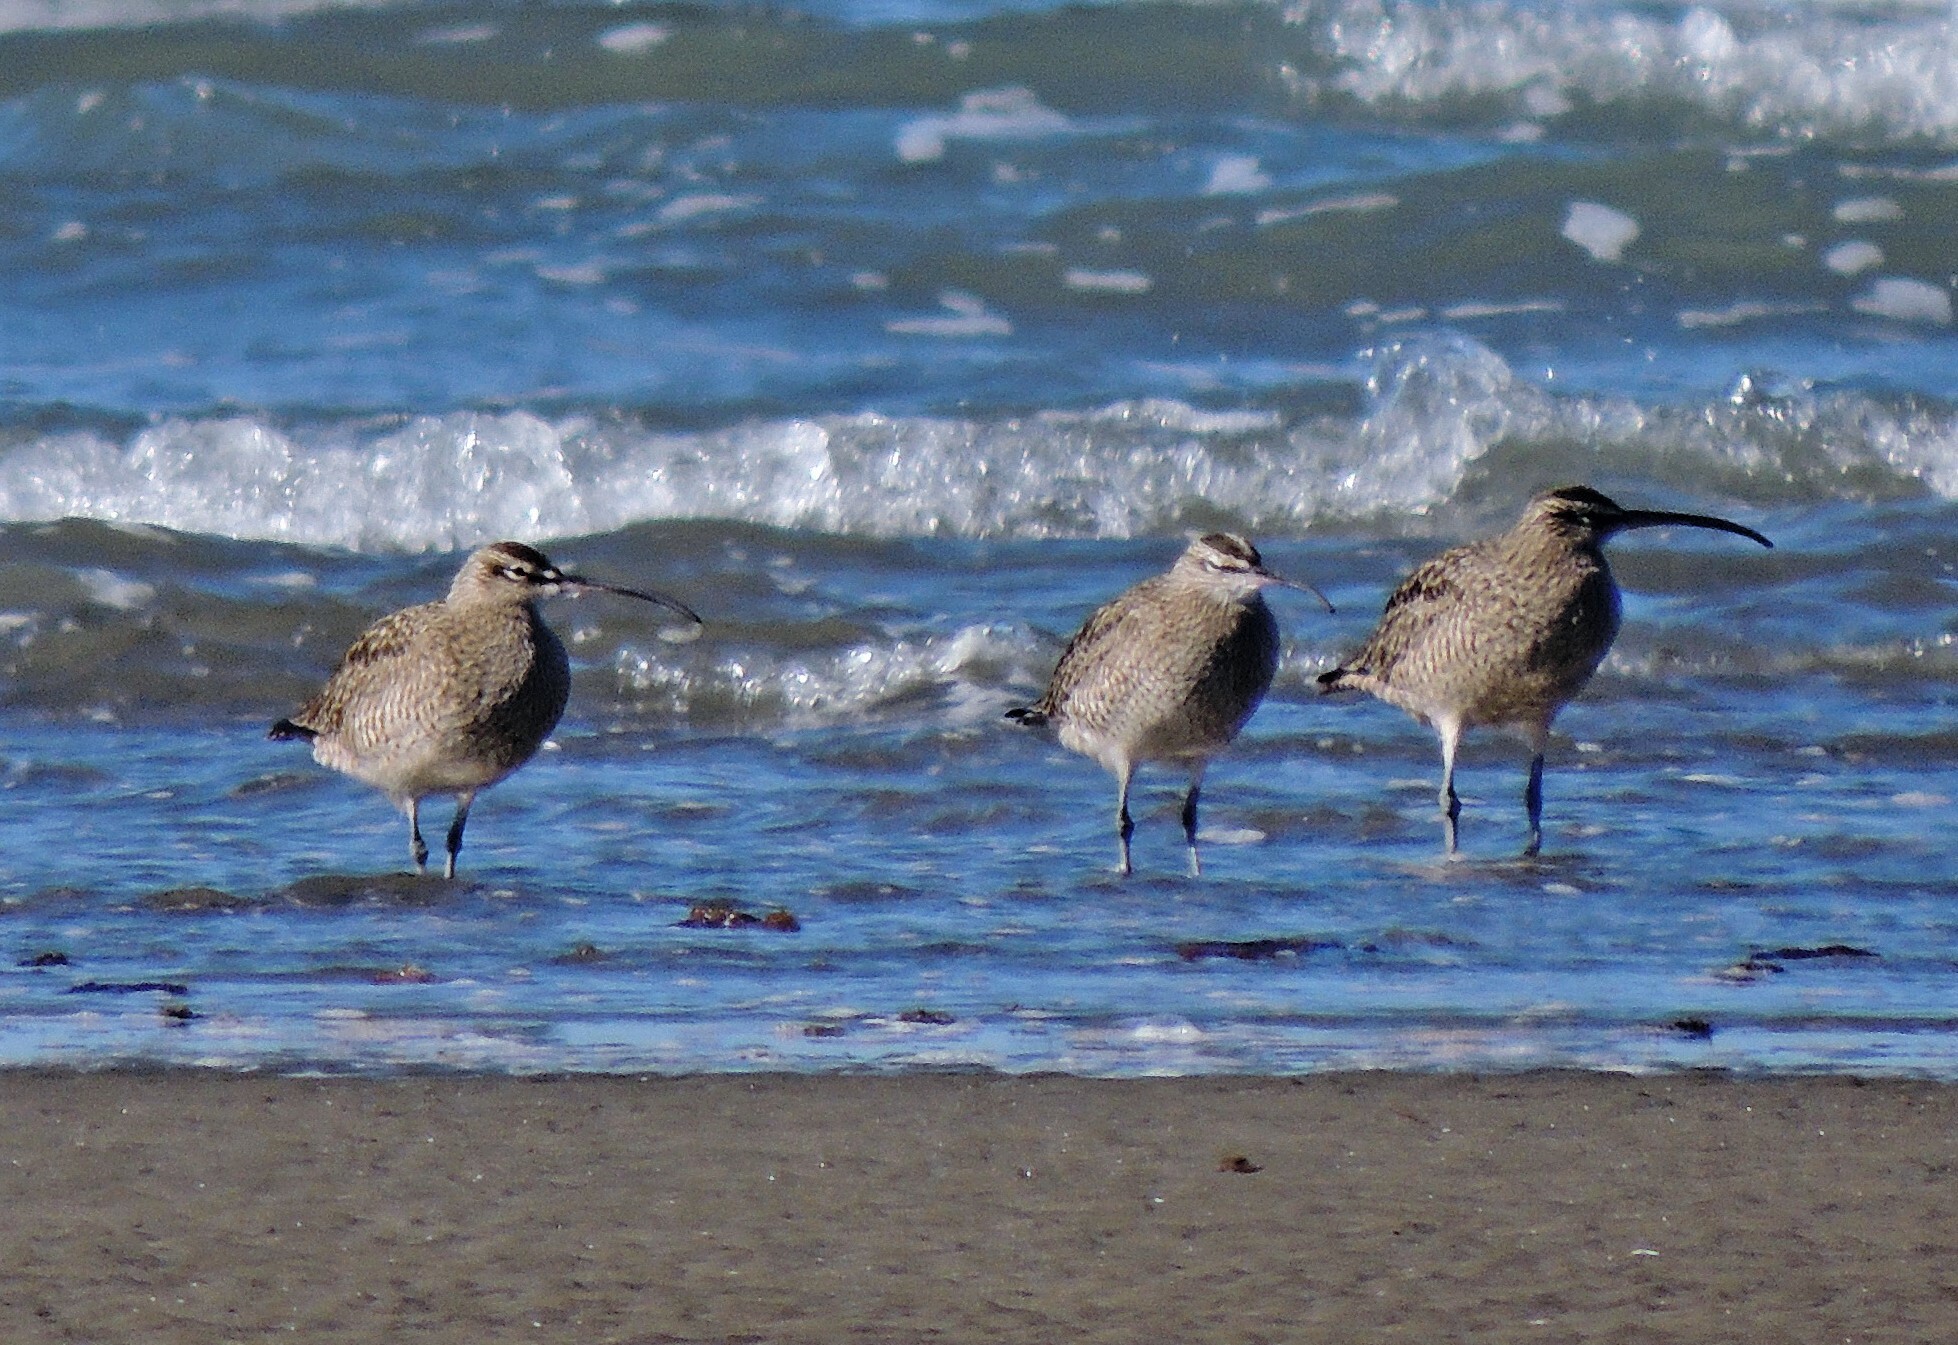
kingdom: Animalia
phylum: Chordata
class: Aves
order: Charadriiformes
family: Scolopacidae
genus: Numenius
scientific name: Numenius phaeopus
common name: Whimbrel
